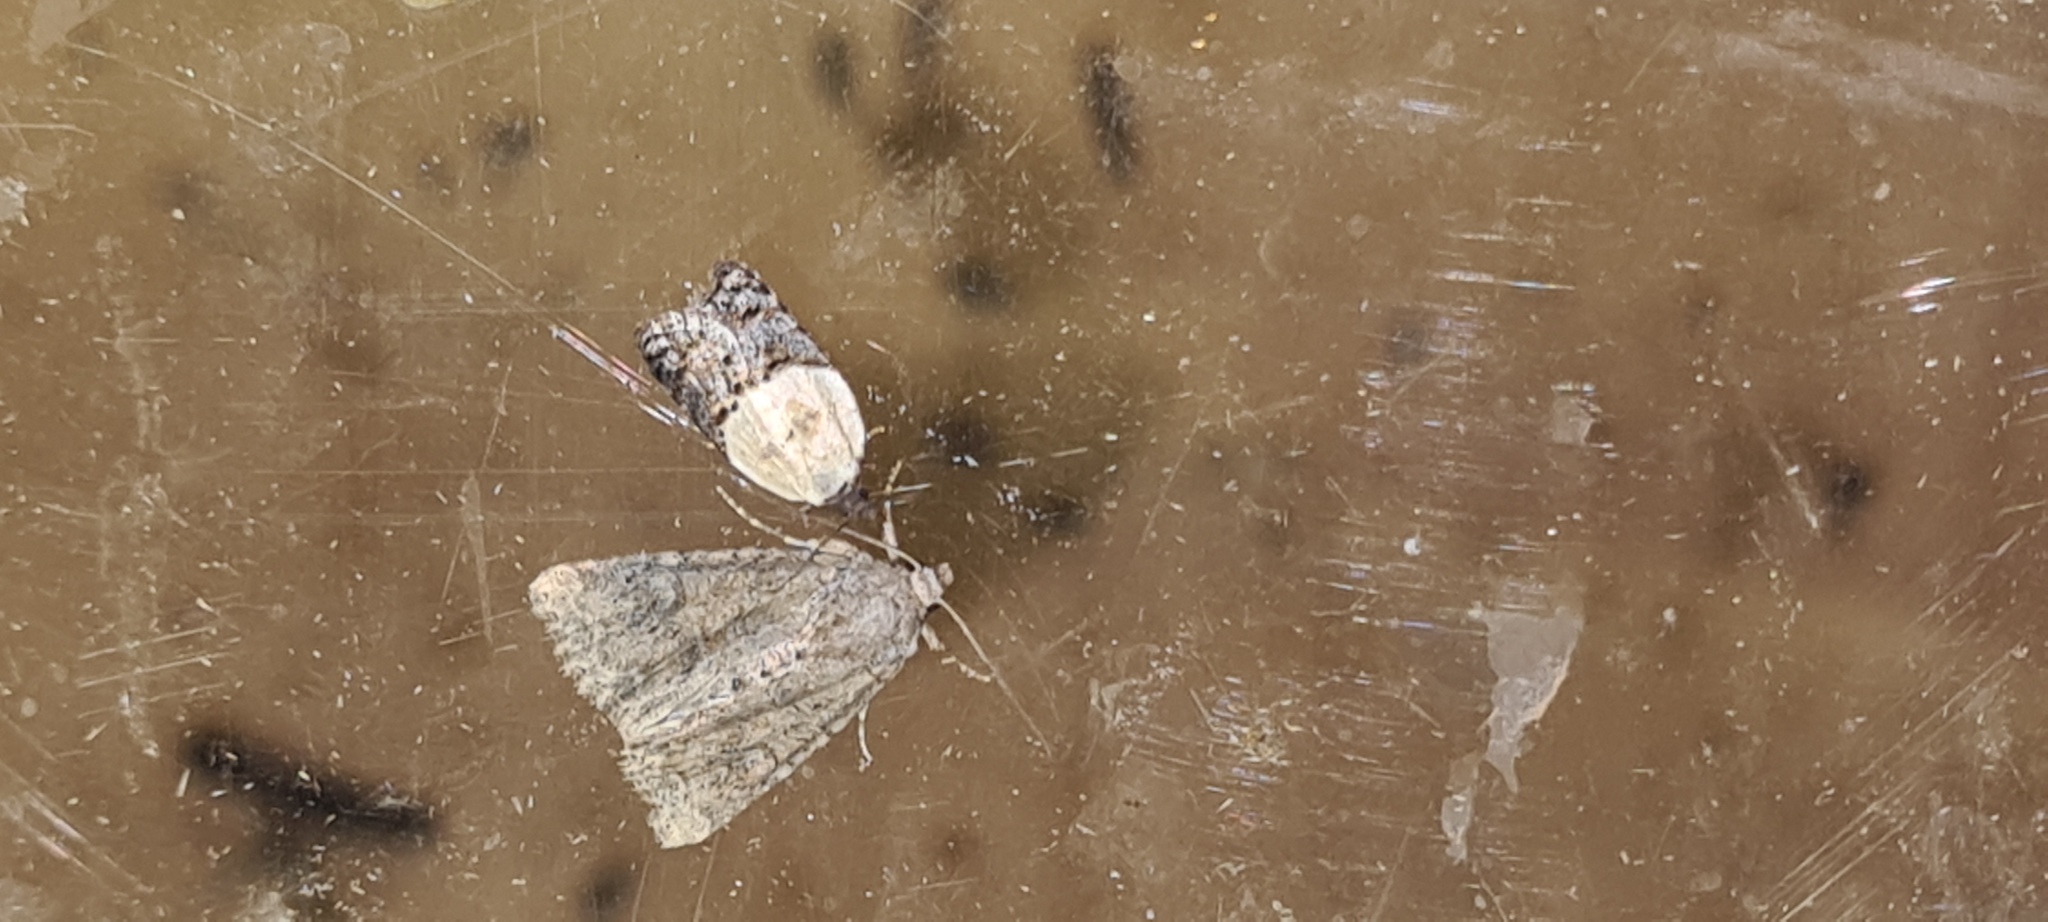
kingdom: Animalia
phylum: Arthropoda
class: Insecta
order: Lepidoptera
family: Tortricidae
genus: Acleris
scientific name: Acleris variegana
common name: Garden rose tortrix
